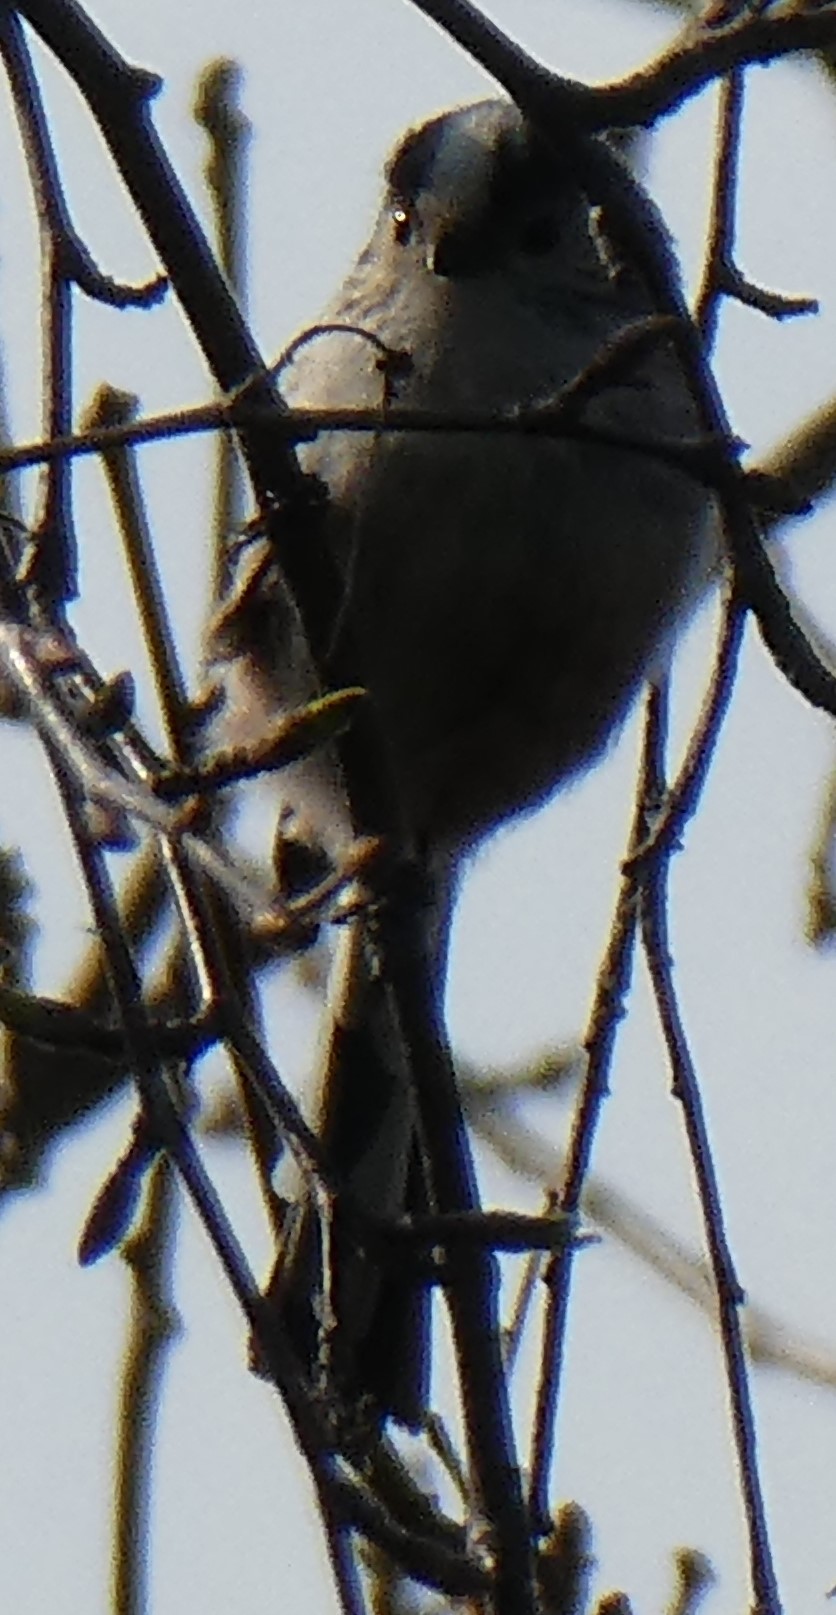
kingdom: Animalia
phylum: Chordata
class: Aves
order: Passeriformes
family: Aegithalidae
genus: Aegithalos
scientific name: Aegithalos caudatus
